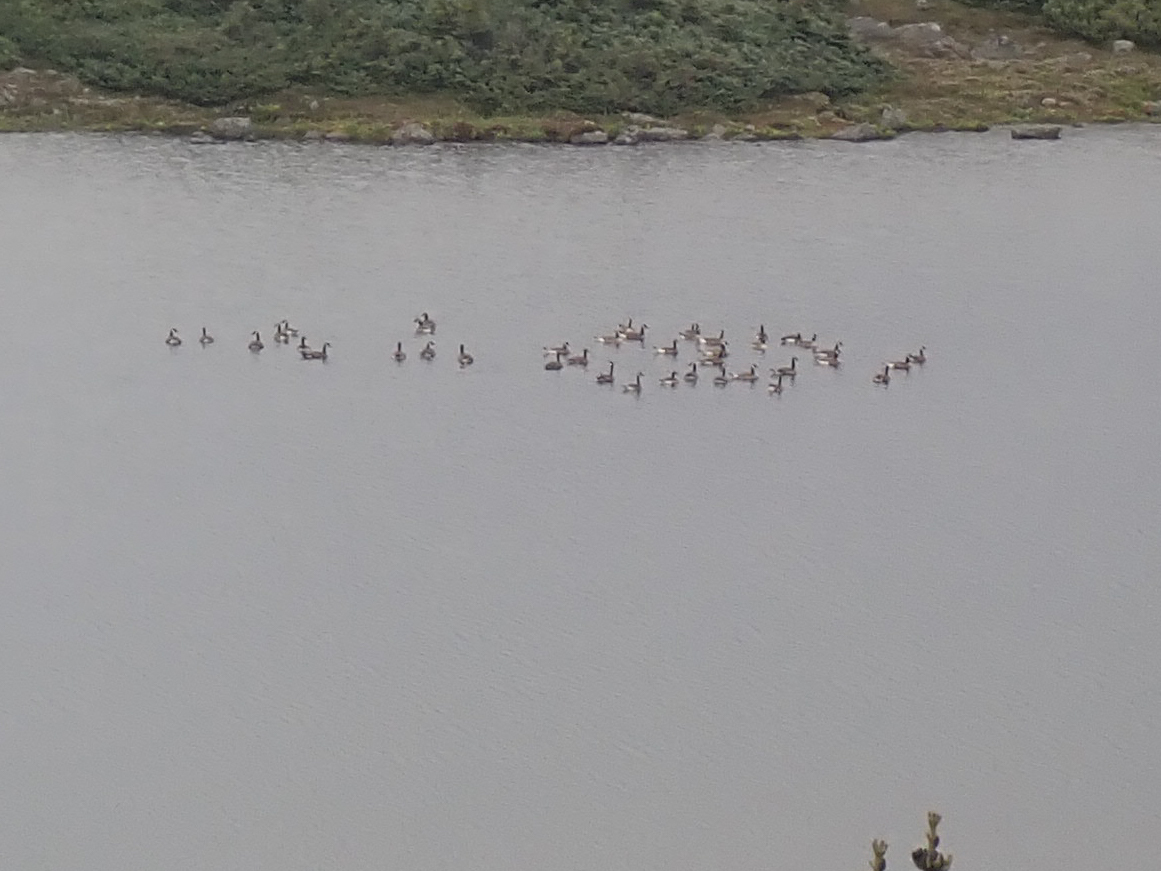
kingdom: Animalia
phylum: Chordata
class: Aves
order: Anseriformes
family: Anatidae
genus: Branta
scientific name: Branta canadensis
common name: Canada goose
